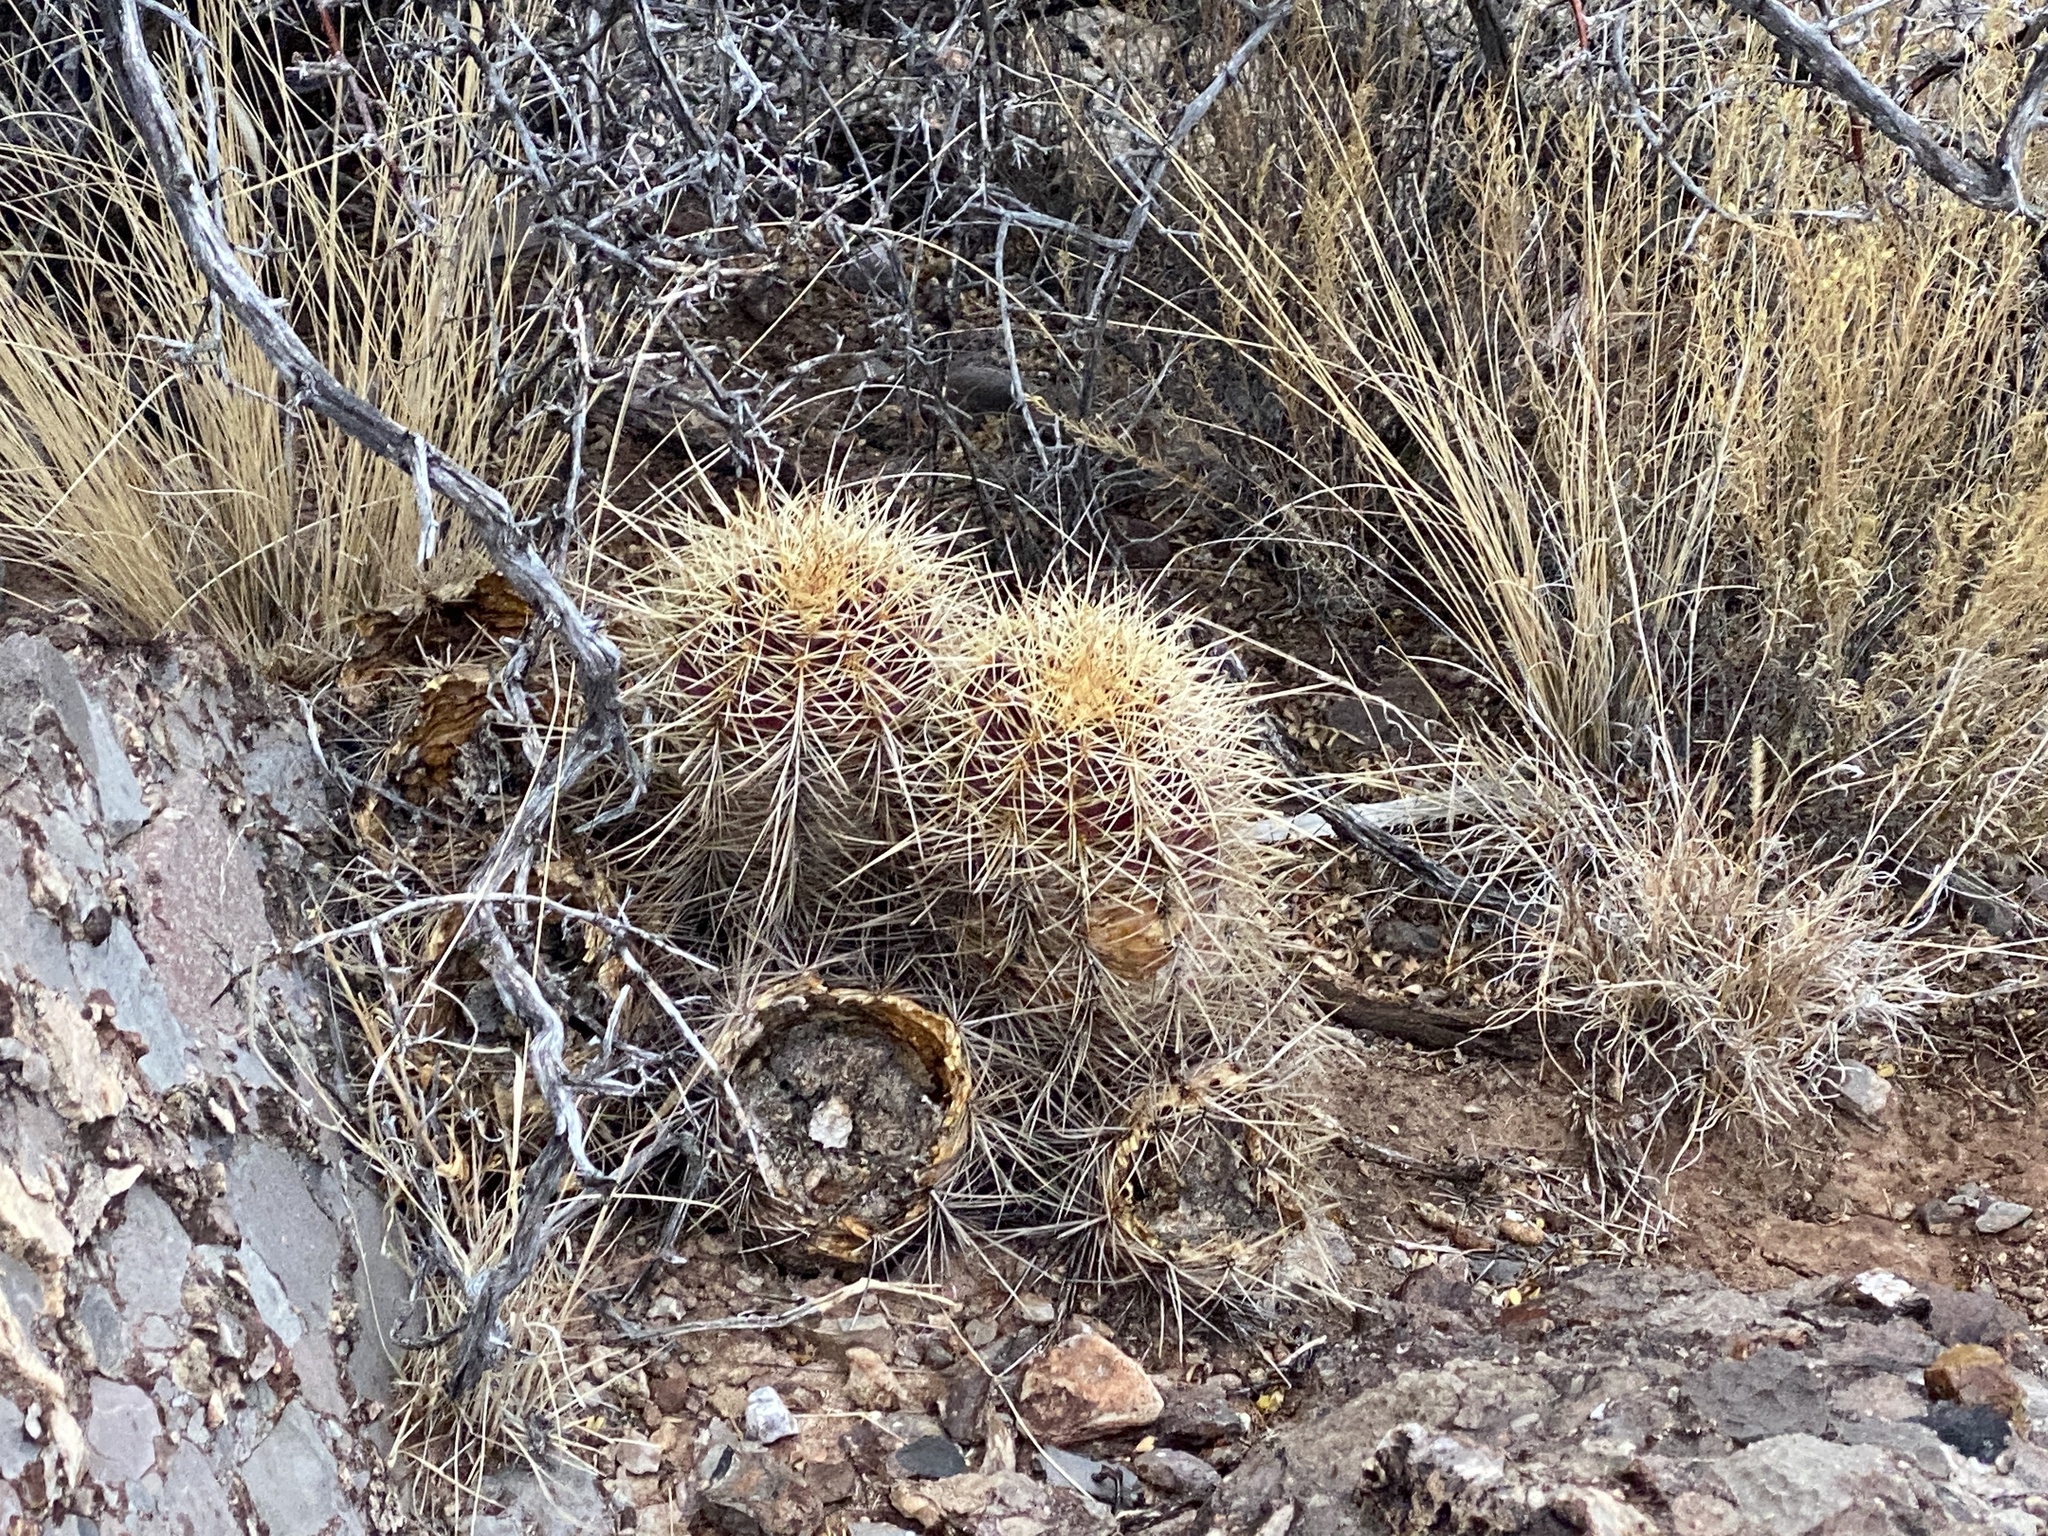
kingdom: Plantae
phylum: Tracheophyta
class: Magnoliopsida
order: Caryophyllales
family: Cactaceae
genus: Echinocereus
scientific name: Echinocereus coccineus
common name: Scarlet hedgehog cactus
